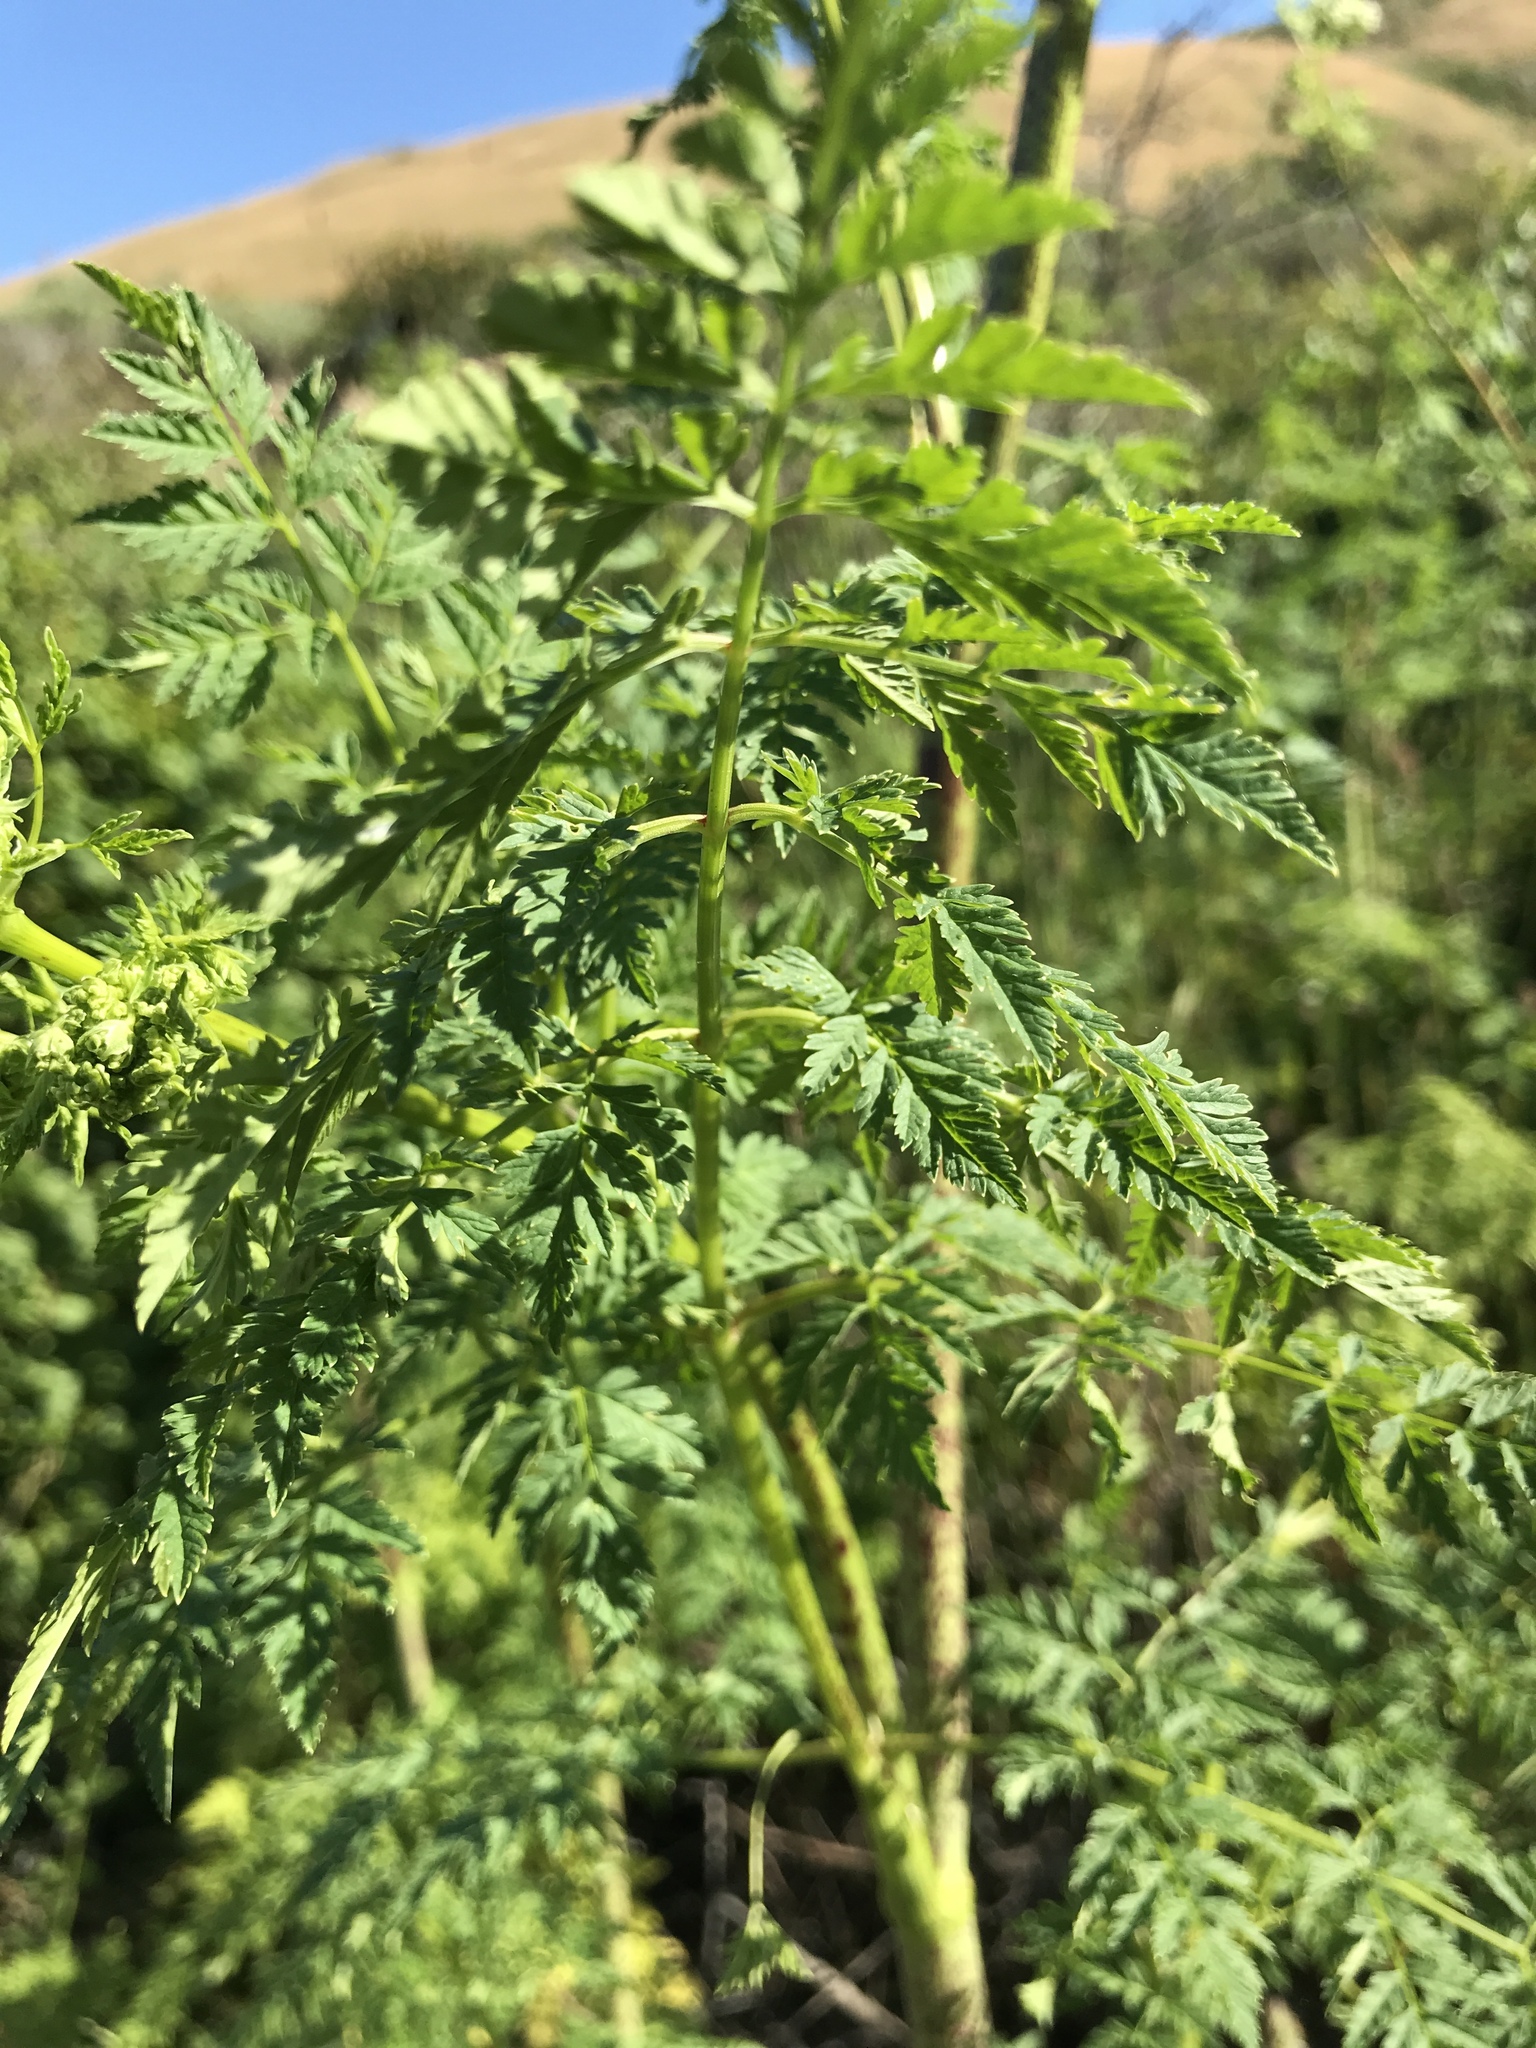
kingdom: Plantae
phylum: Tracheophyta
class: Magnoliopsida
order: Apiales
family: Apiaceae
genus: Conium
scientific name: Conium maculatum
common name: Hemlock
